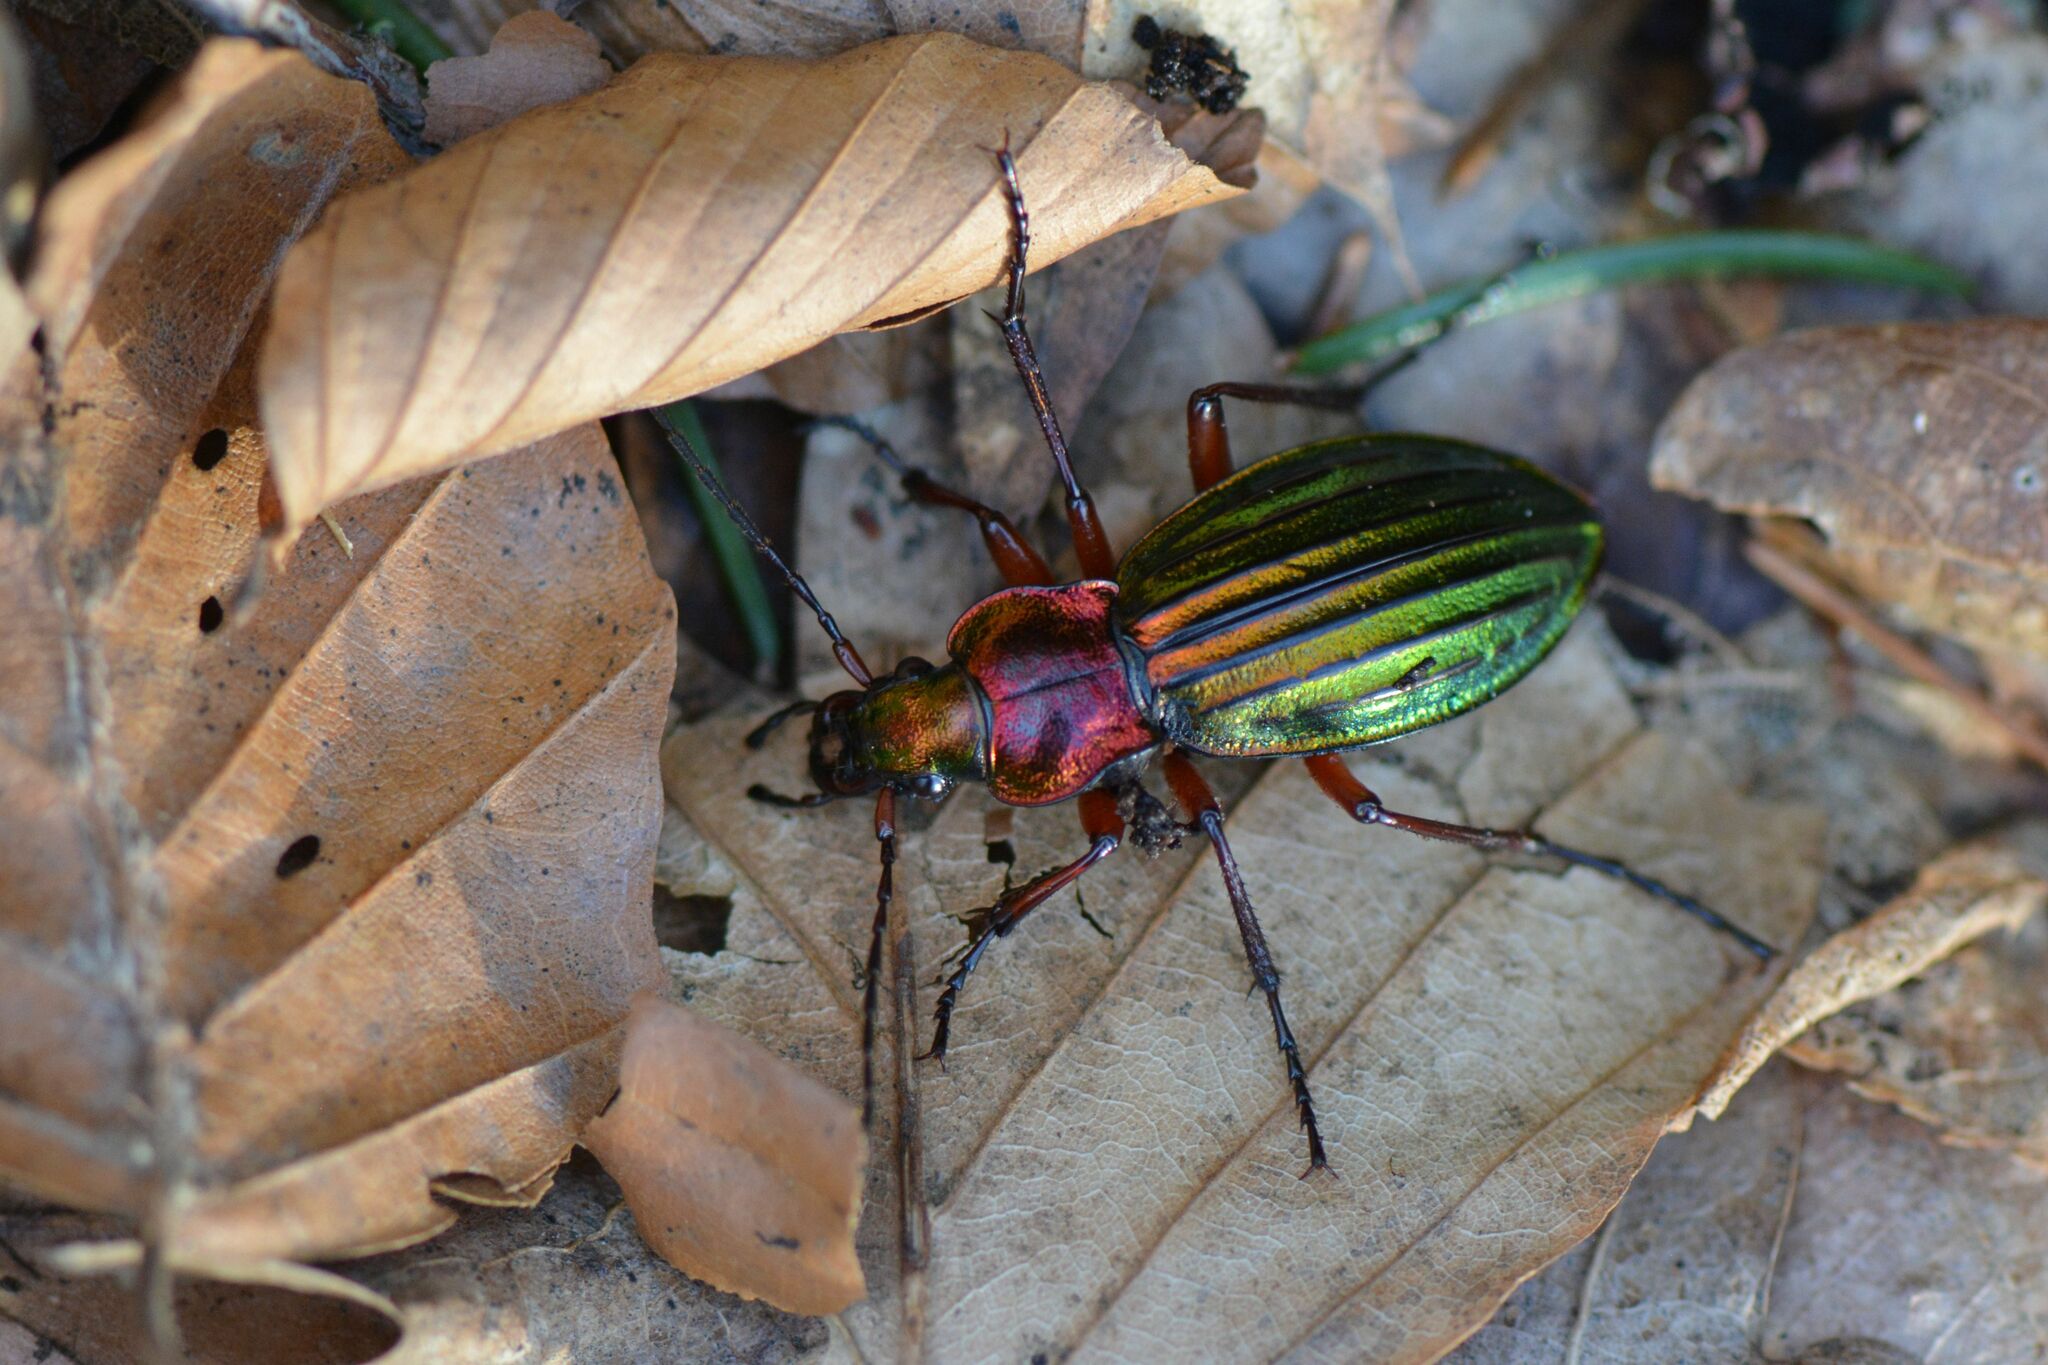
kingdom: Animalia
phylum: Arthropoda
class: Insecta
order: Coleoptera
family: Carabidae
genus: Carabus
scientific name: Carabus auronitens
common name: Carabus auronitens
